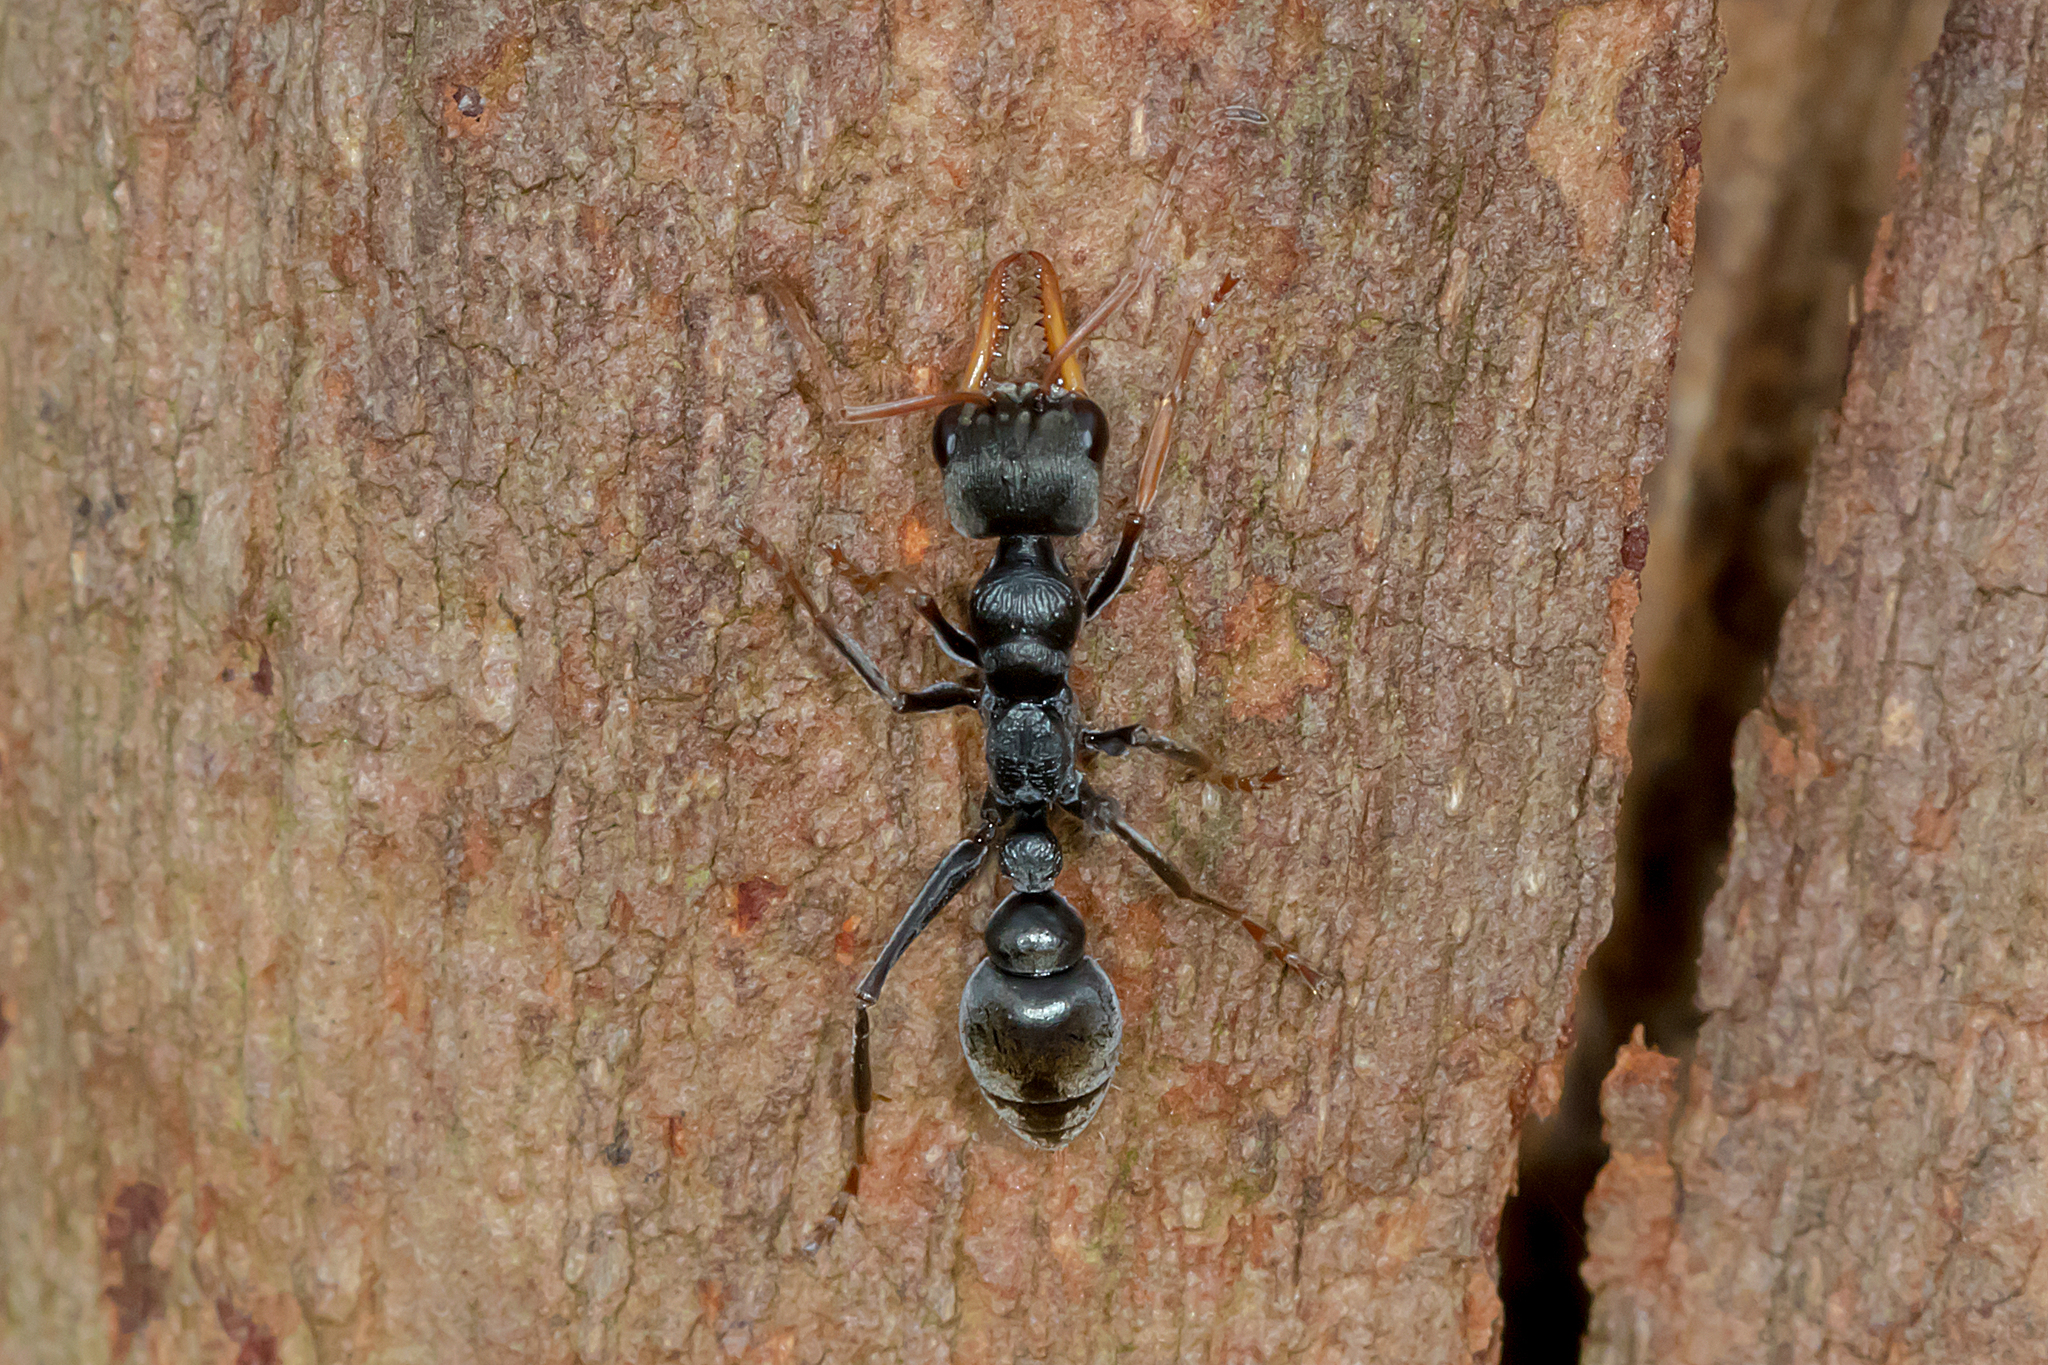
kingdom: Animalia
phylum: Arthropoda
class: Insecta
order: Hymenoptera
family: Formicidae
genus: Myrmecia
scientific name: Myrmecia pilosula
